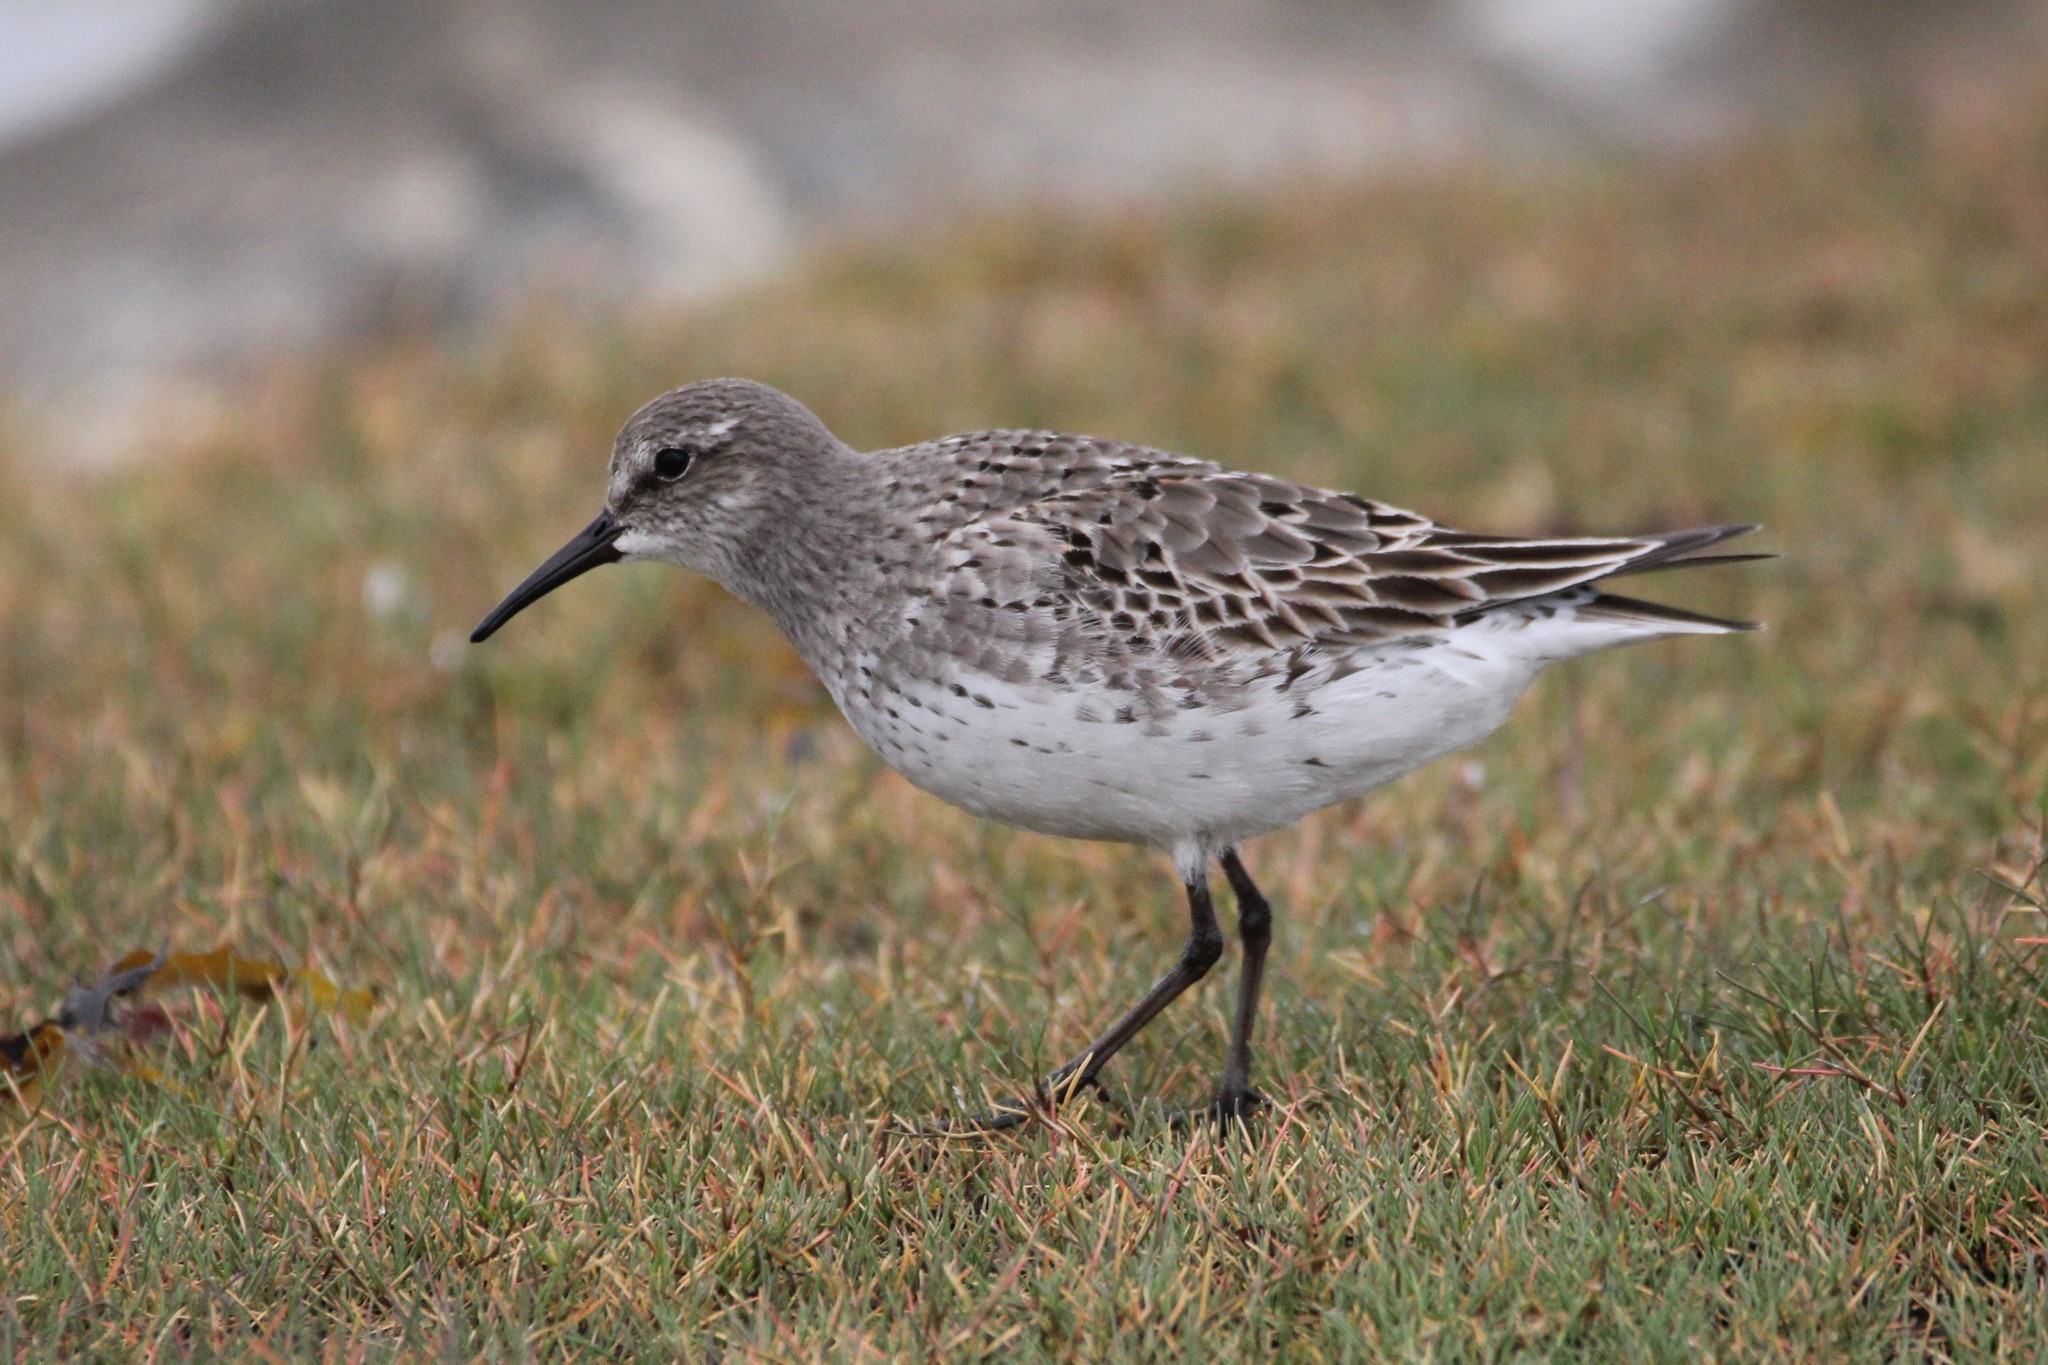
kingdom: Animalia
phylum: Chordata
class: Aves
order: Charadriiformes
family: Scolopacidae
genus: Calidris
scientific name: Calidris fuscicollis
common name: White-rumped sandpiper
